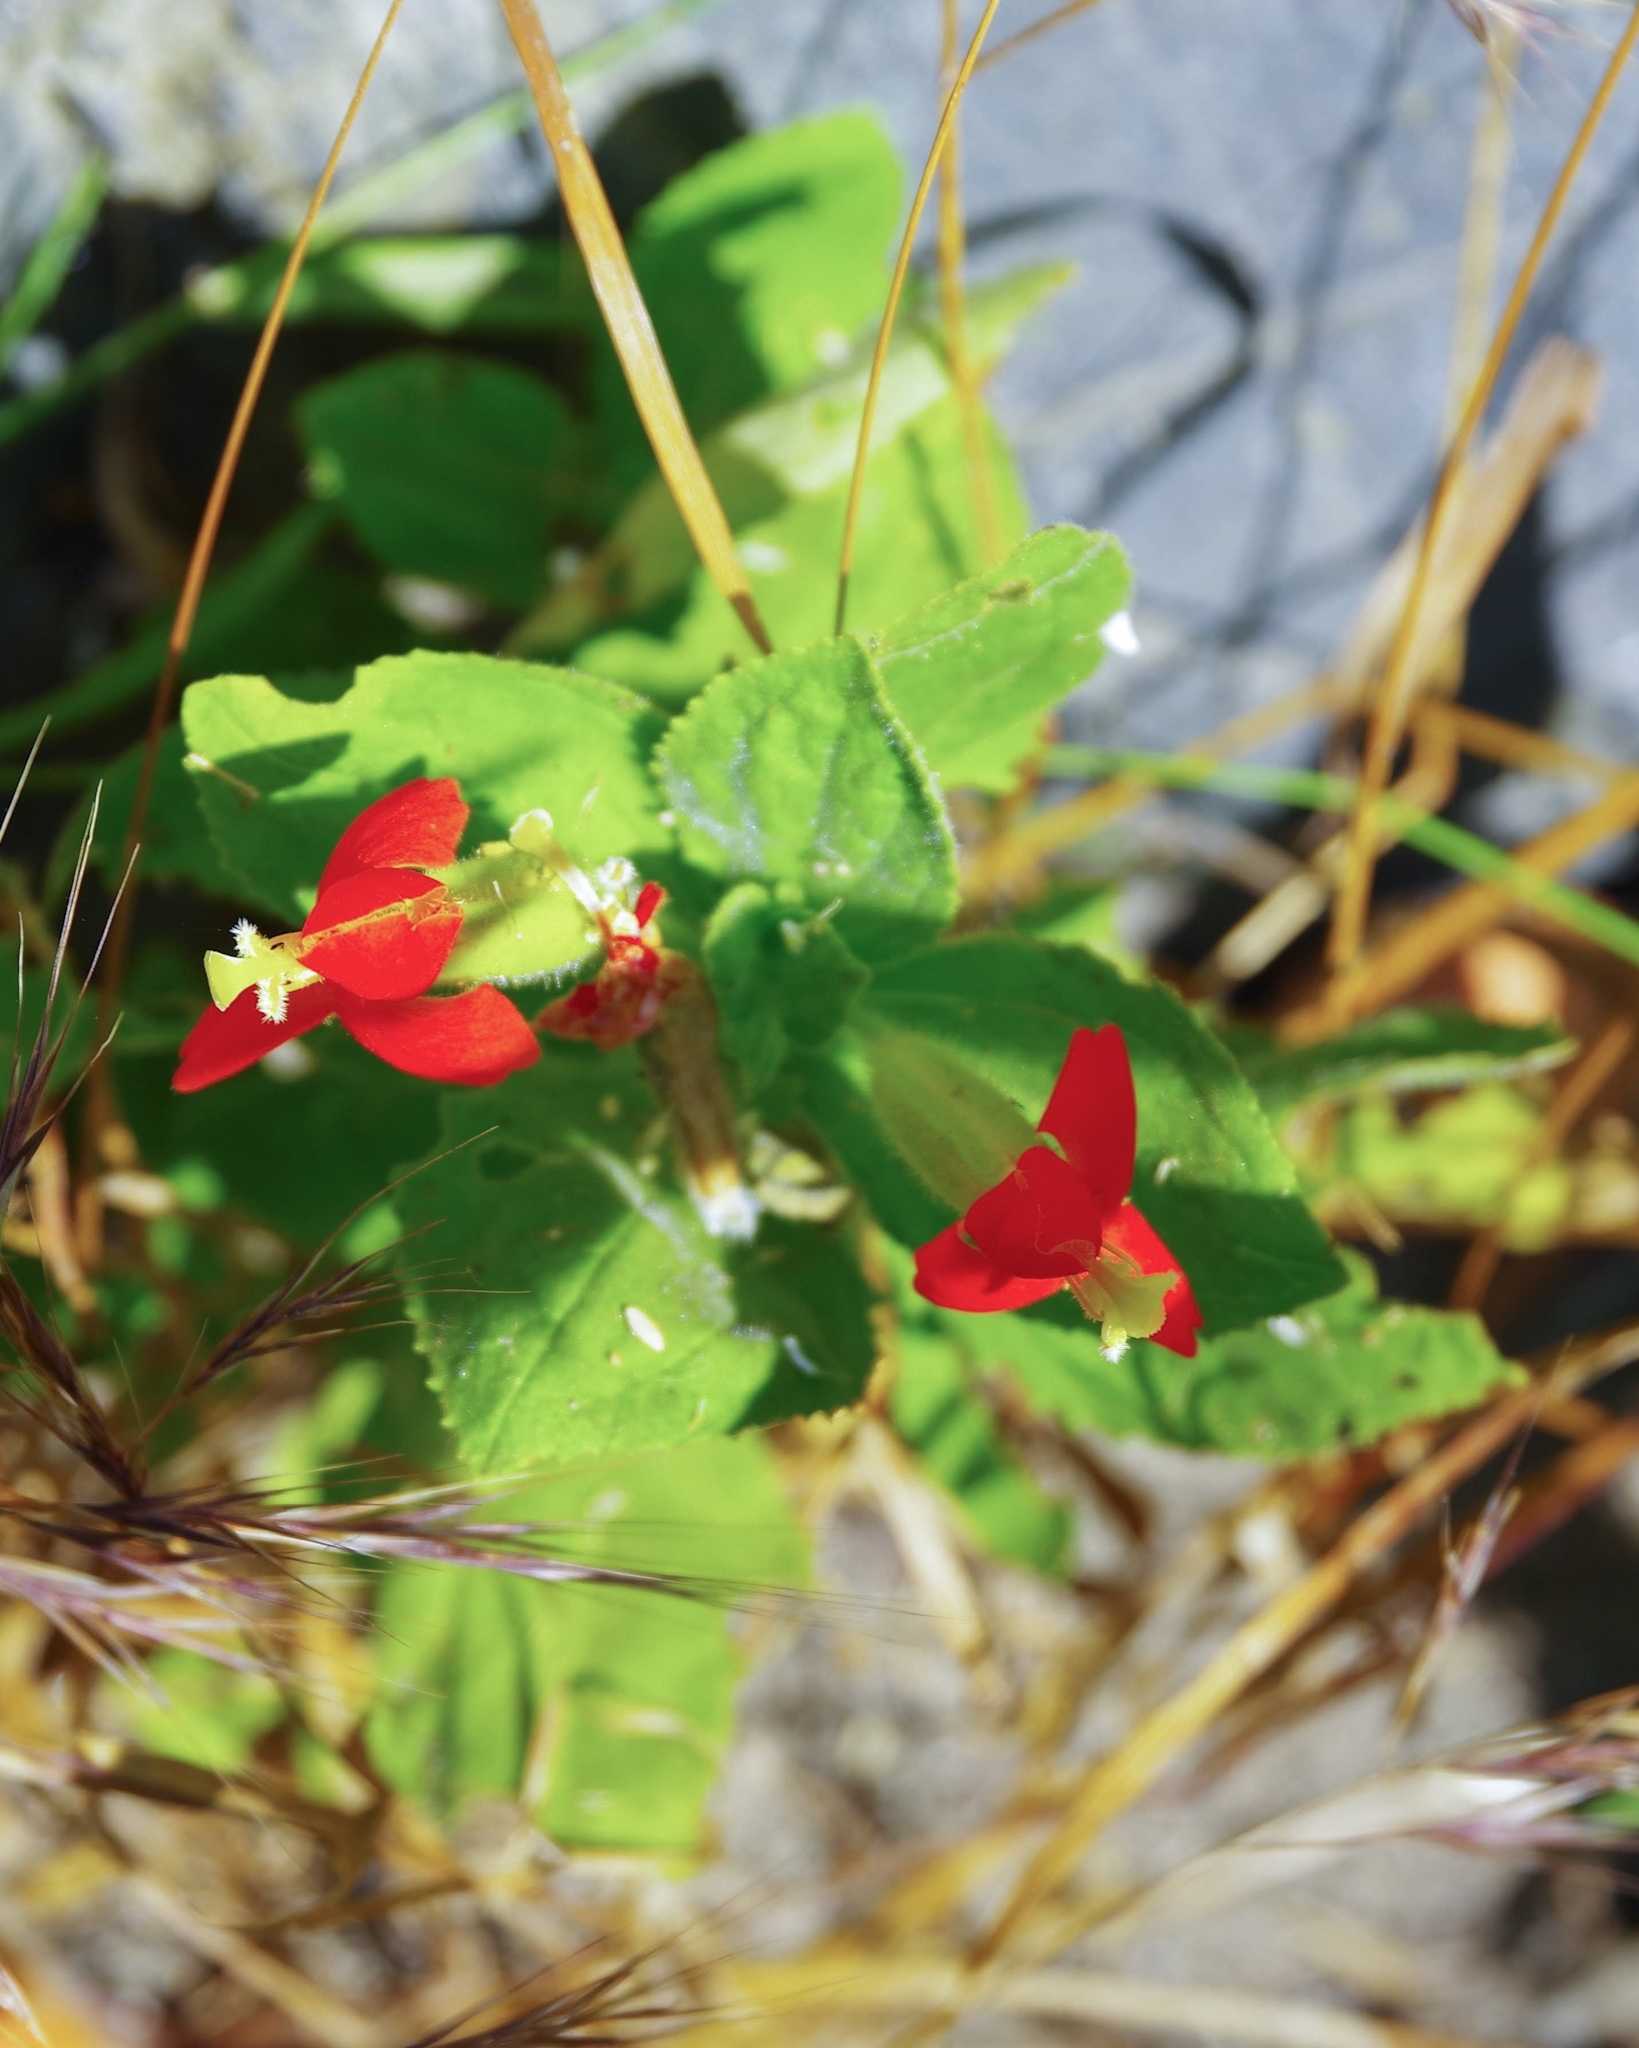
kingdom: Plantae
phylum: Tracheophyta
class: Magnoliopsida
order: Lamiales
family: Phrymaceae
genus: Erythranthe
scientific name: Erythranthe cardinalis
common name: Scarlet monkey-flower
